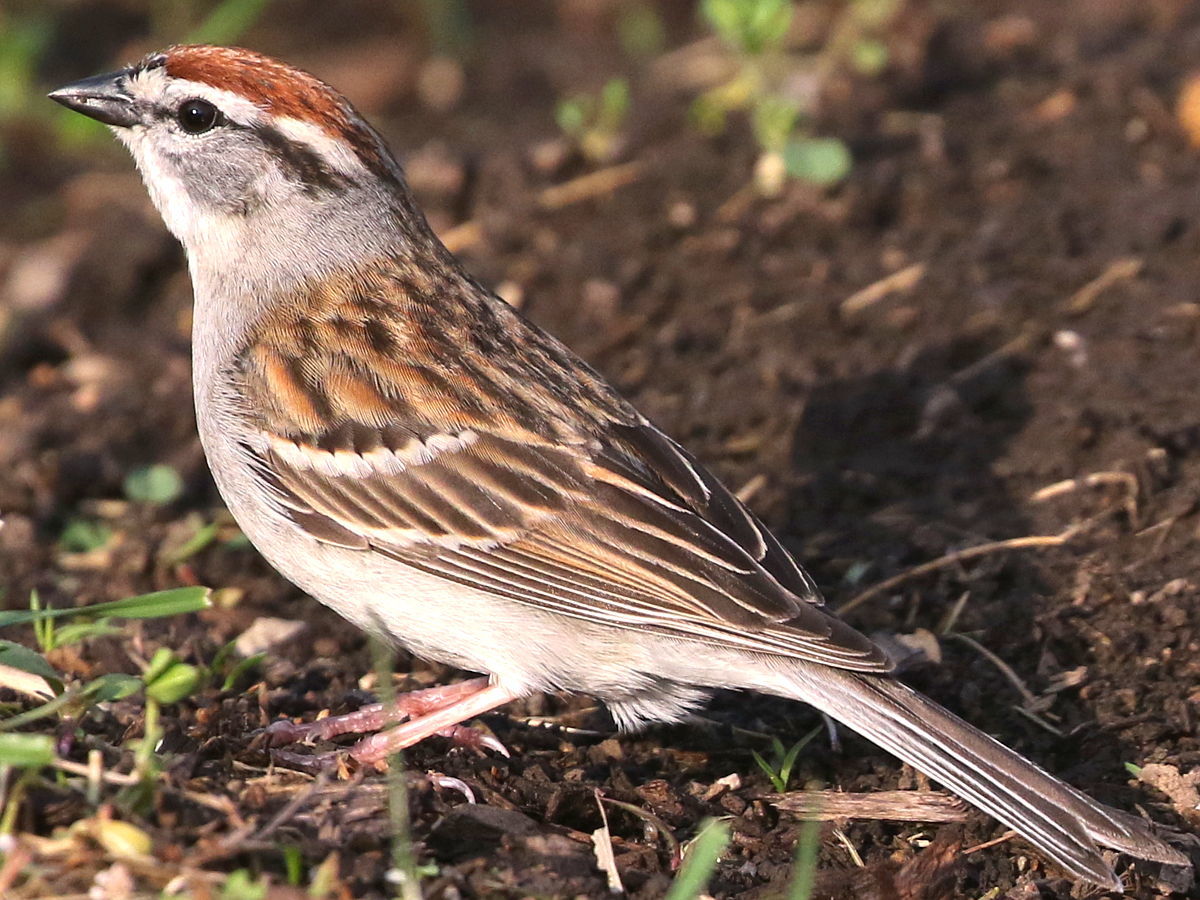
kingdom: Animalia
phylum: Chordata
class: Aves
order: Passeriformes
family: Passerellidae
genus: Spizella
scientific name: Spizella passerina
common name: Chipping sparrow
